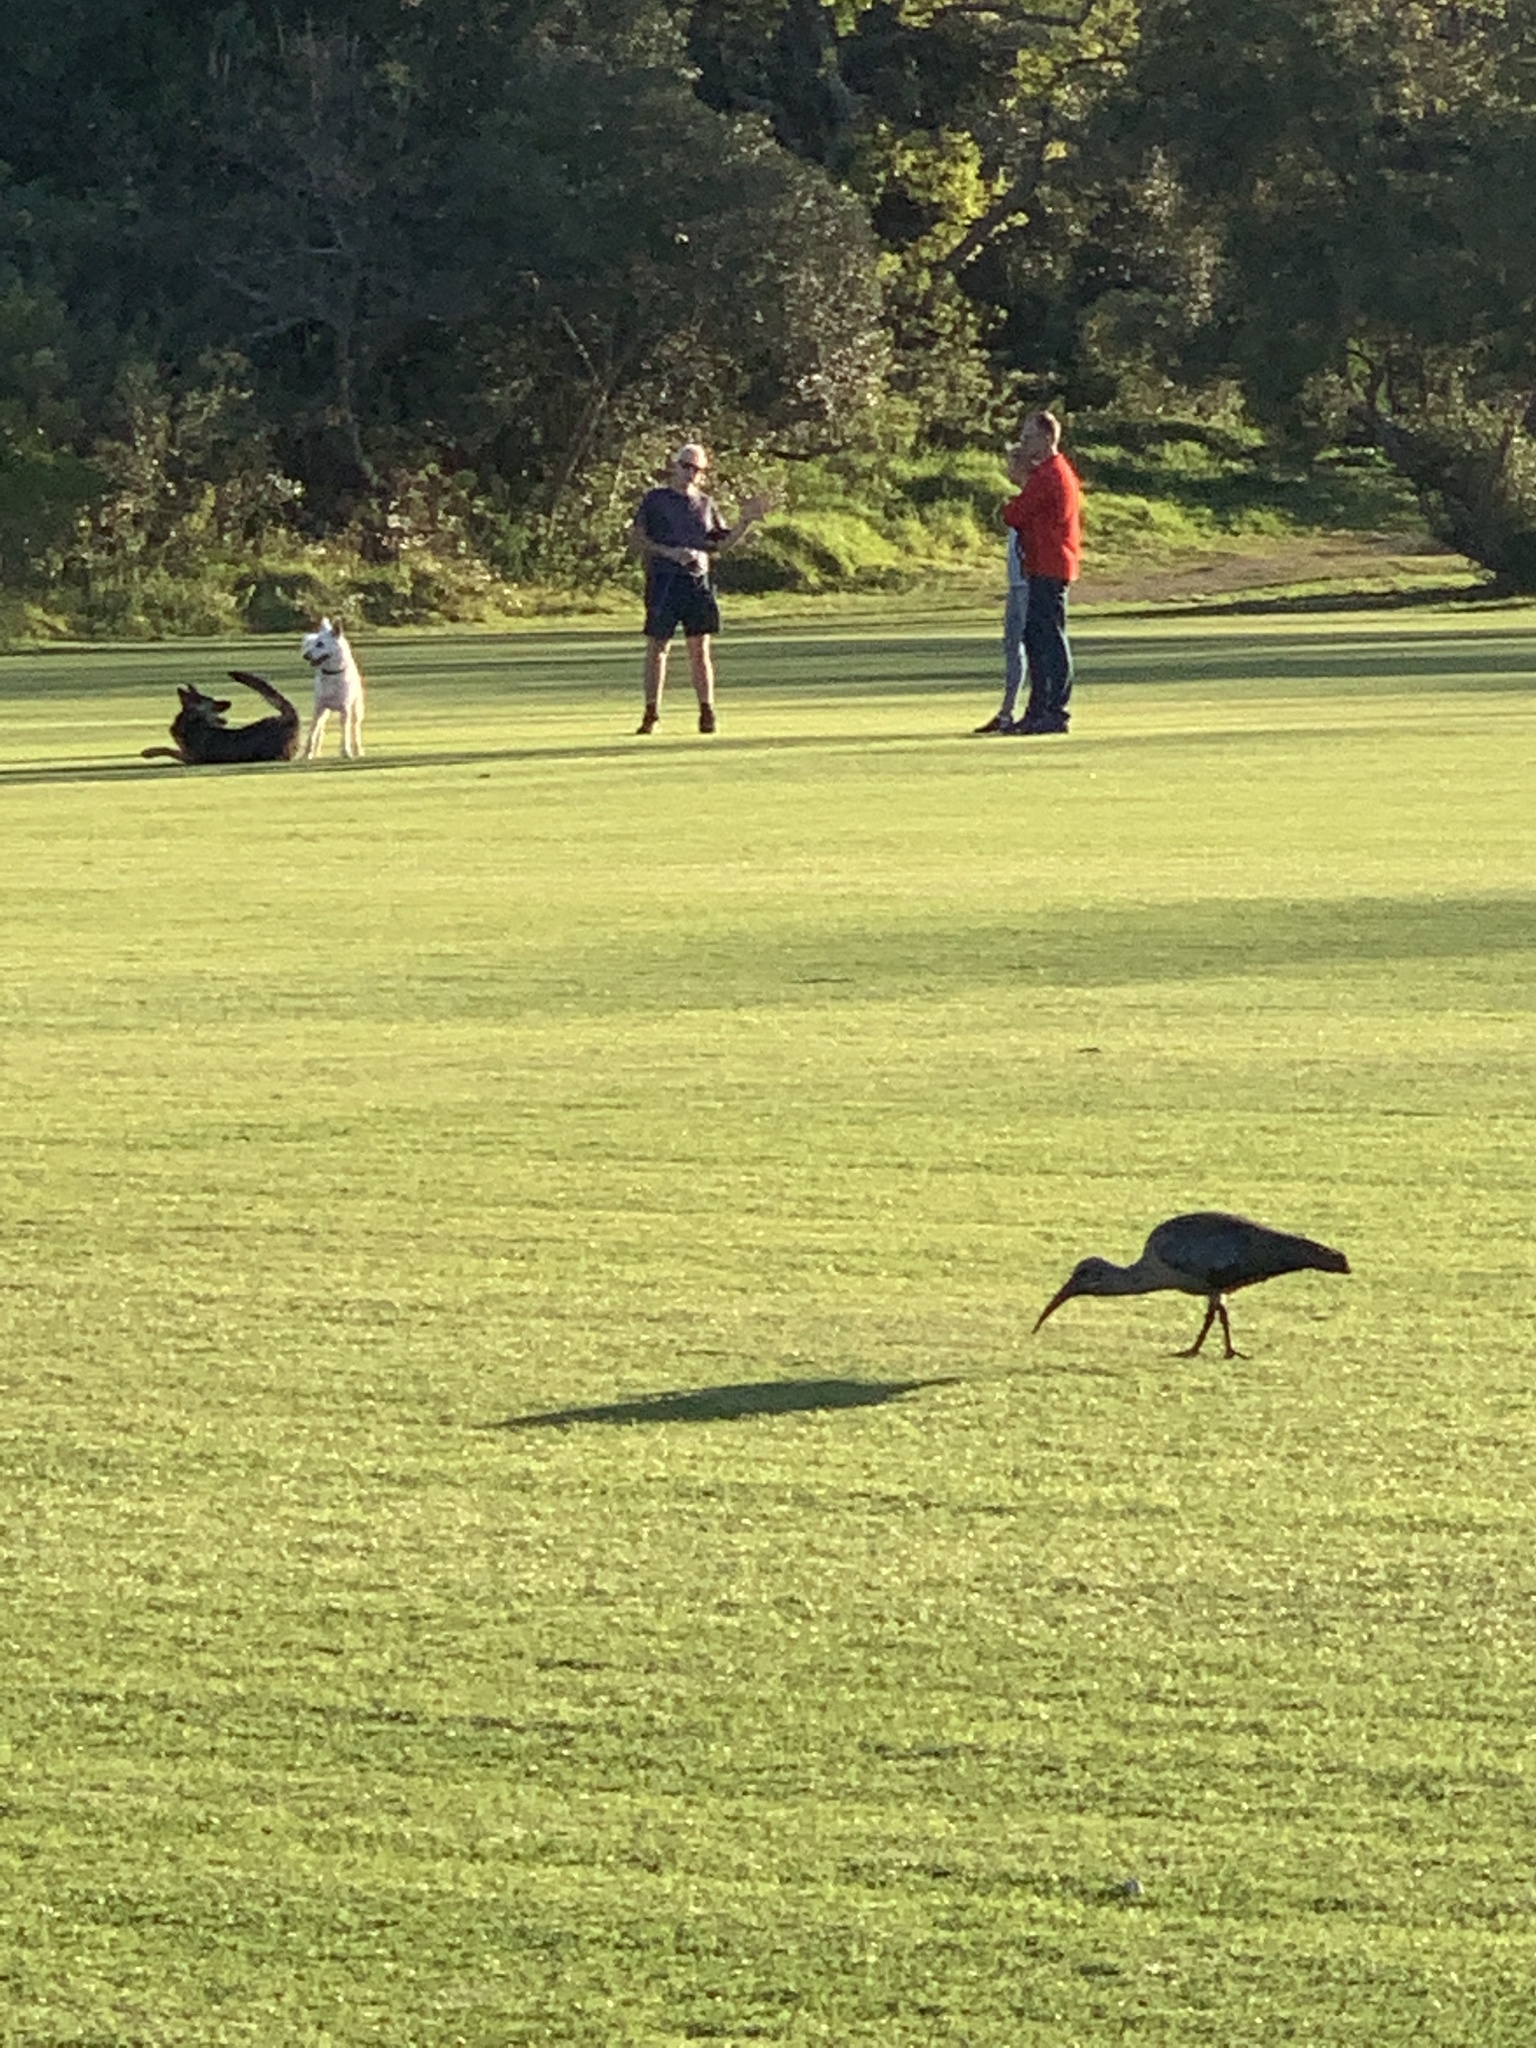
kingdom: Animalia
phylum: Chordata
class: Aves
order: Pelecaniformes
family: Threskiornithidae
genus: Bostrychia
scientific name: Bostrychia hagedash
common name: Hadada ibis
